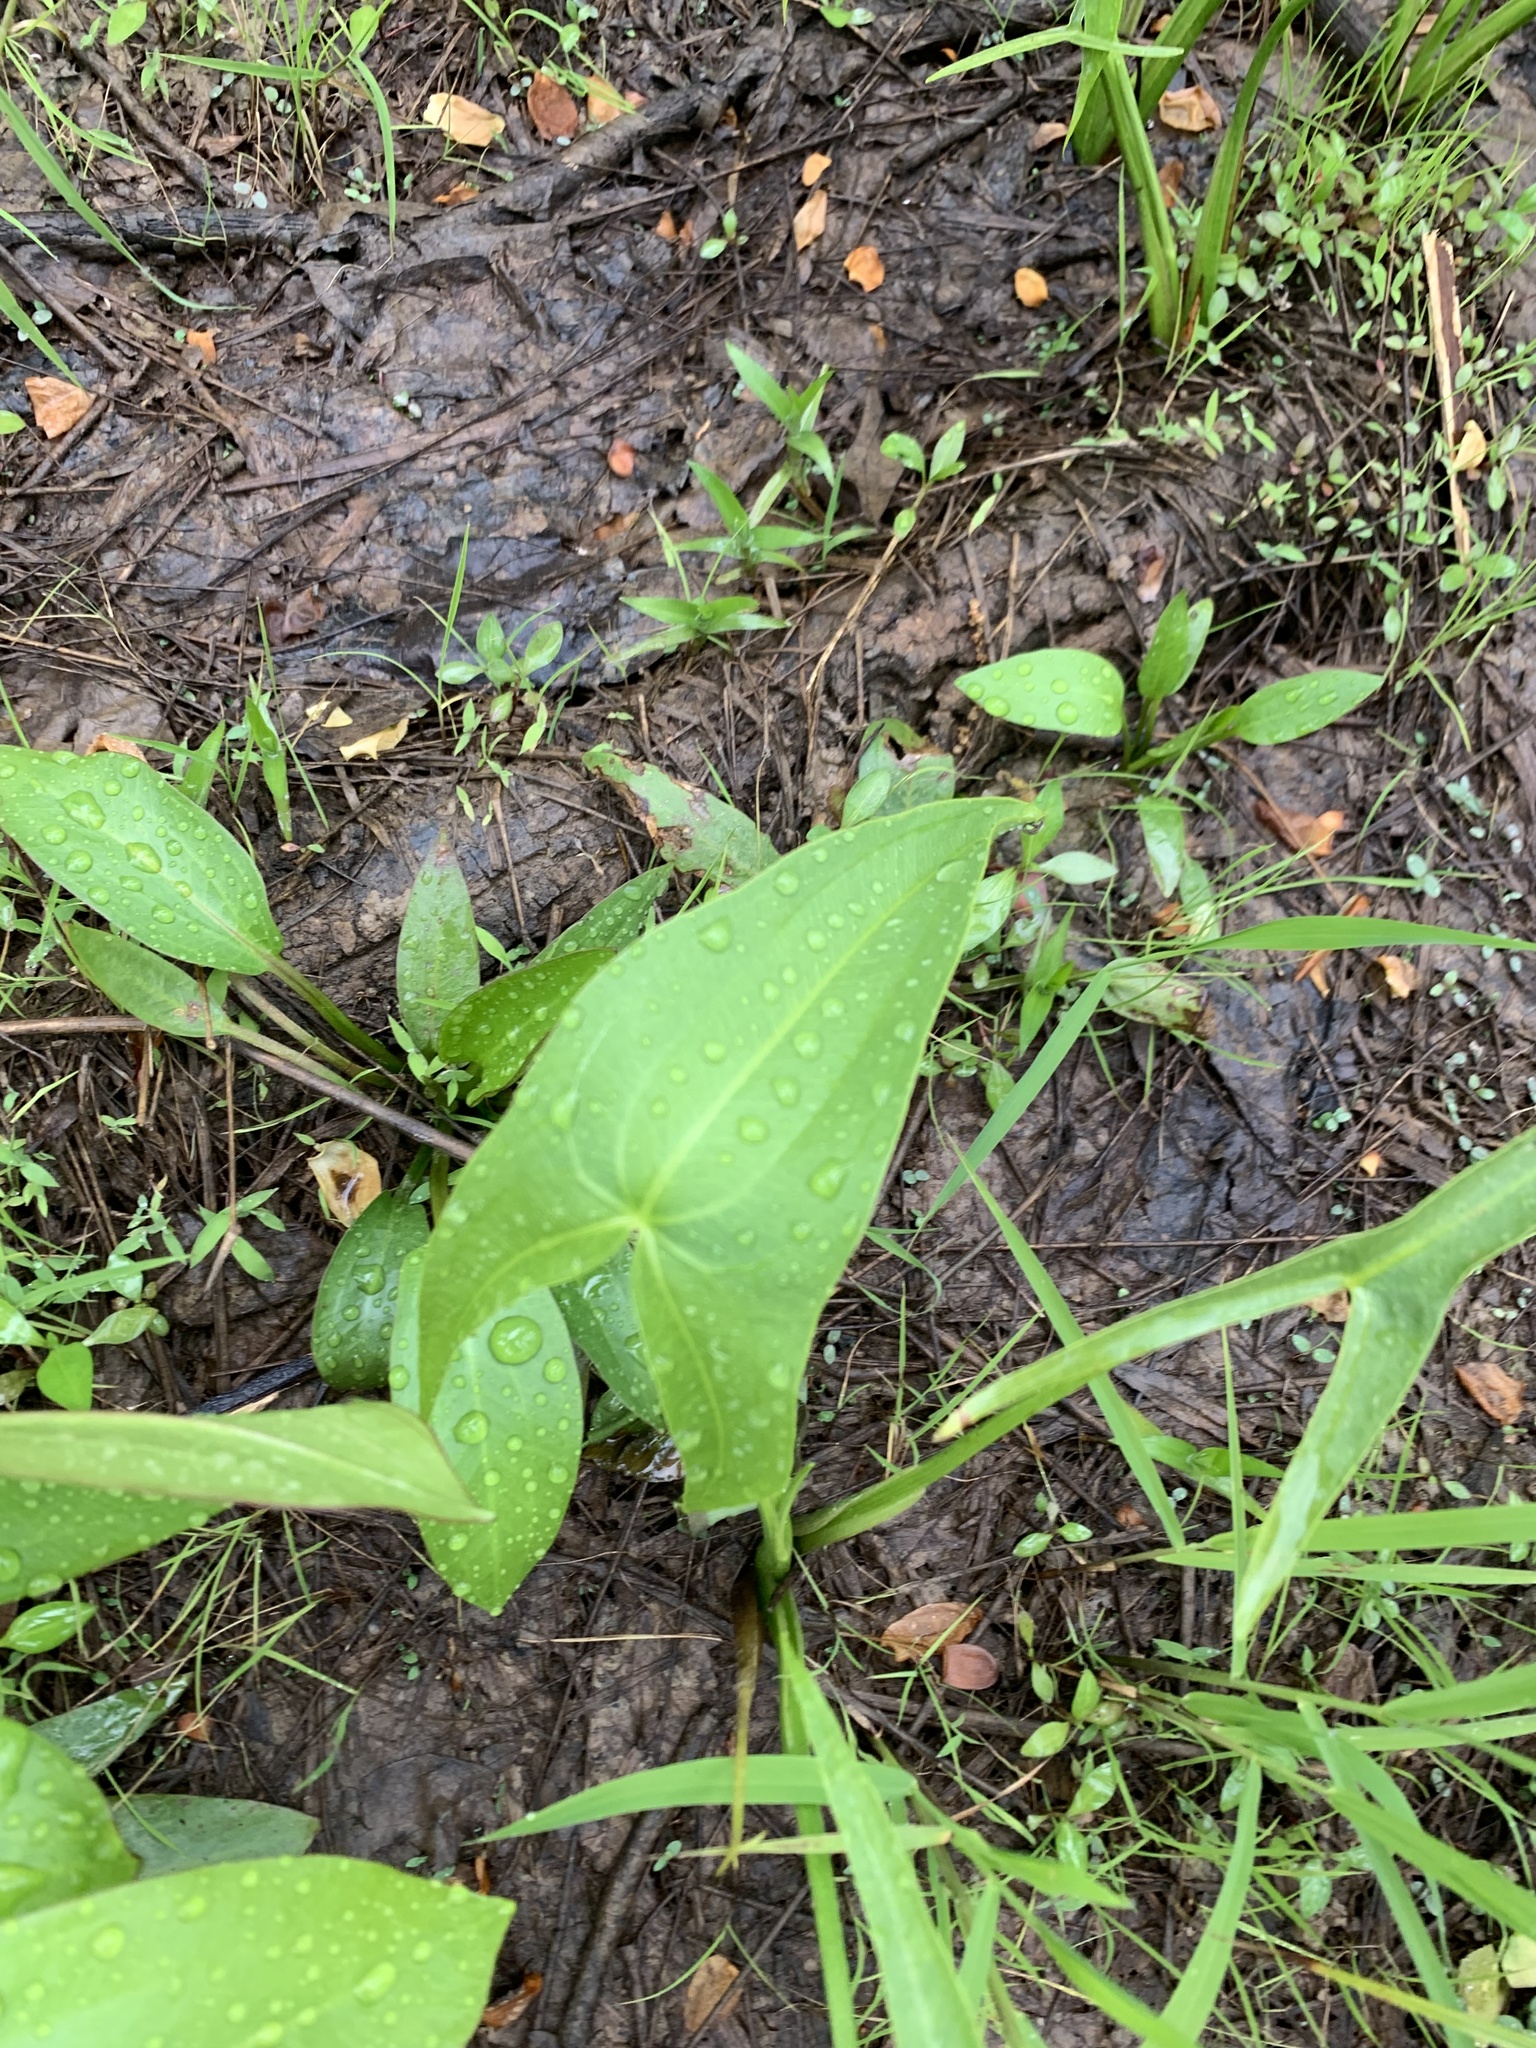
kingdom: Plantae
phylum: Tracheophyta
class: Liliopsida
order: Alismatales
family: Alismataceae
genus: Sagittaria
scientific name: Sagittaria latifolia
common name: Duck-potato
